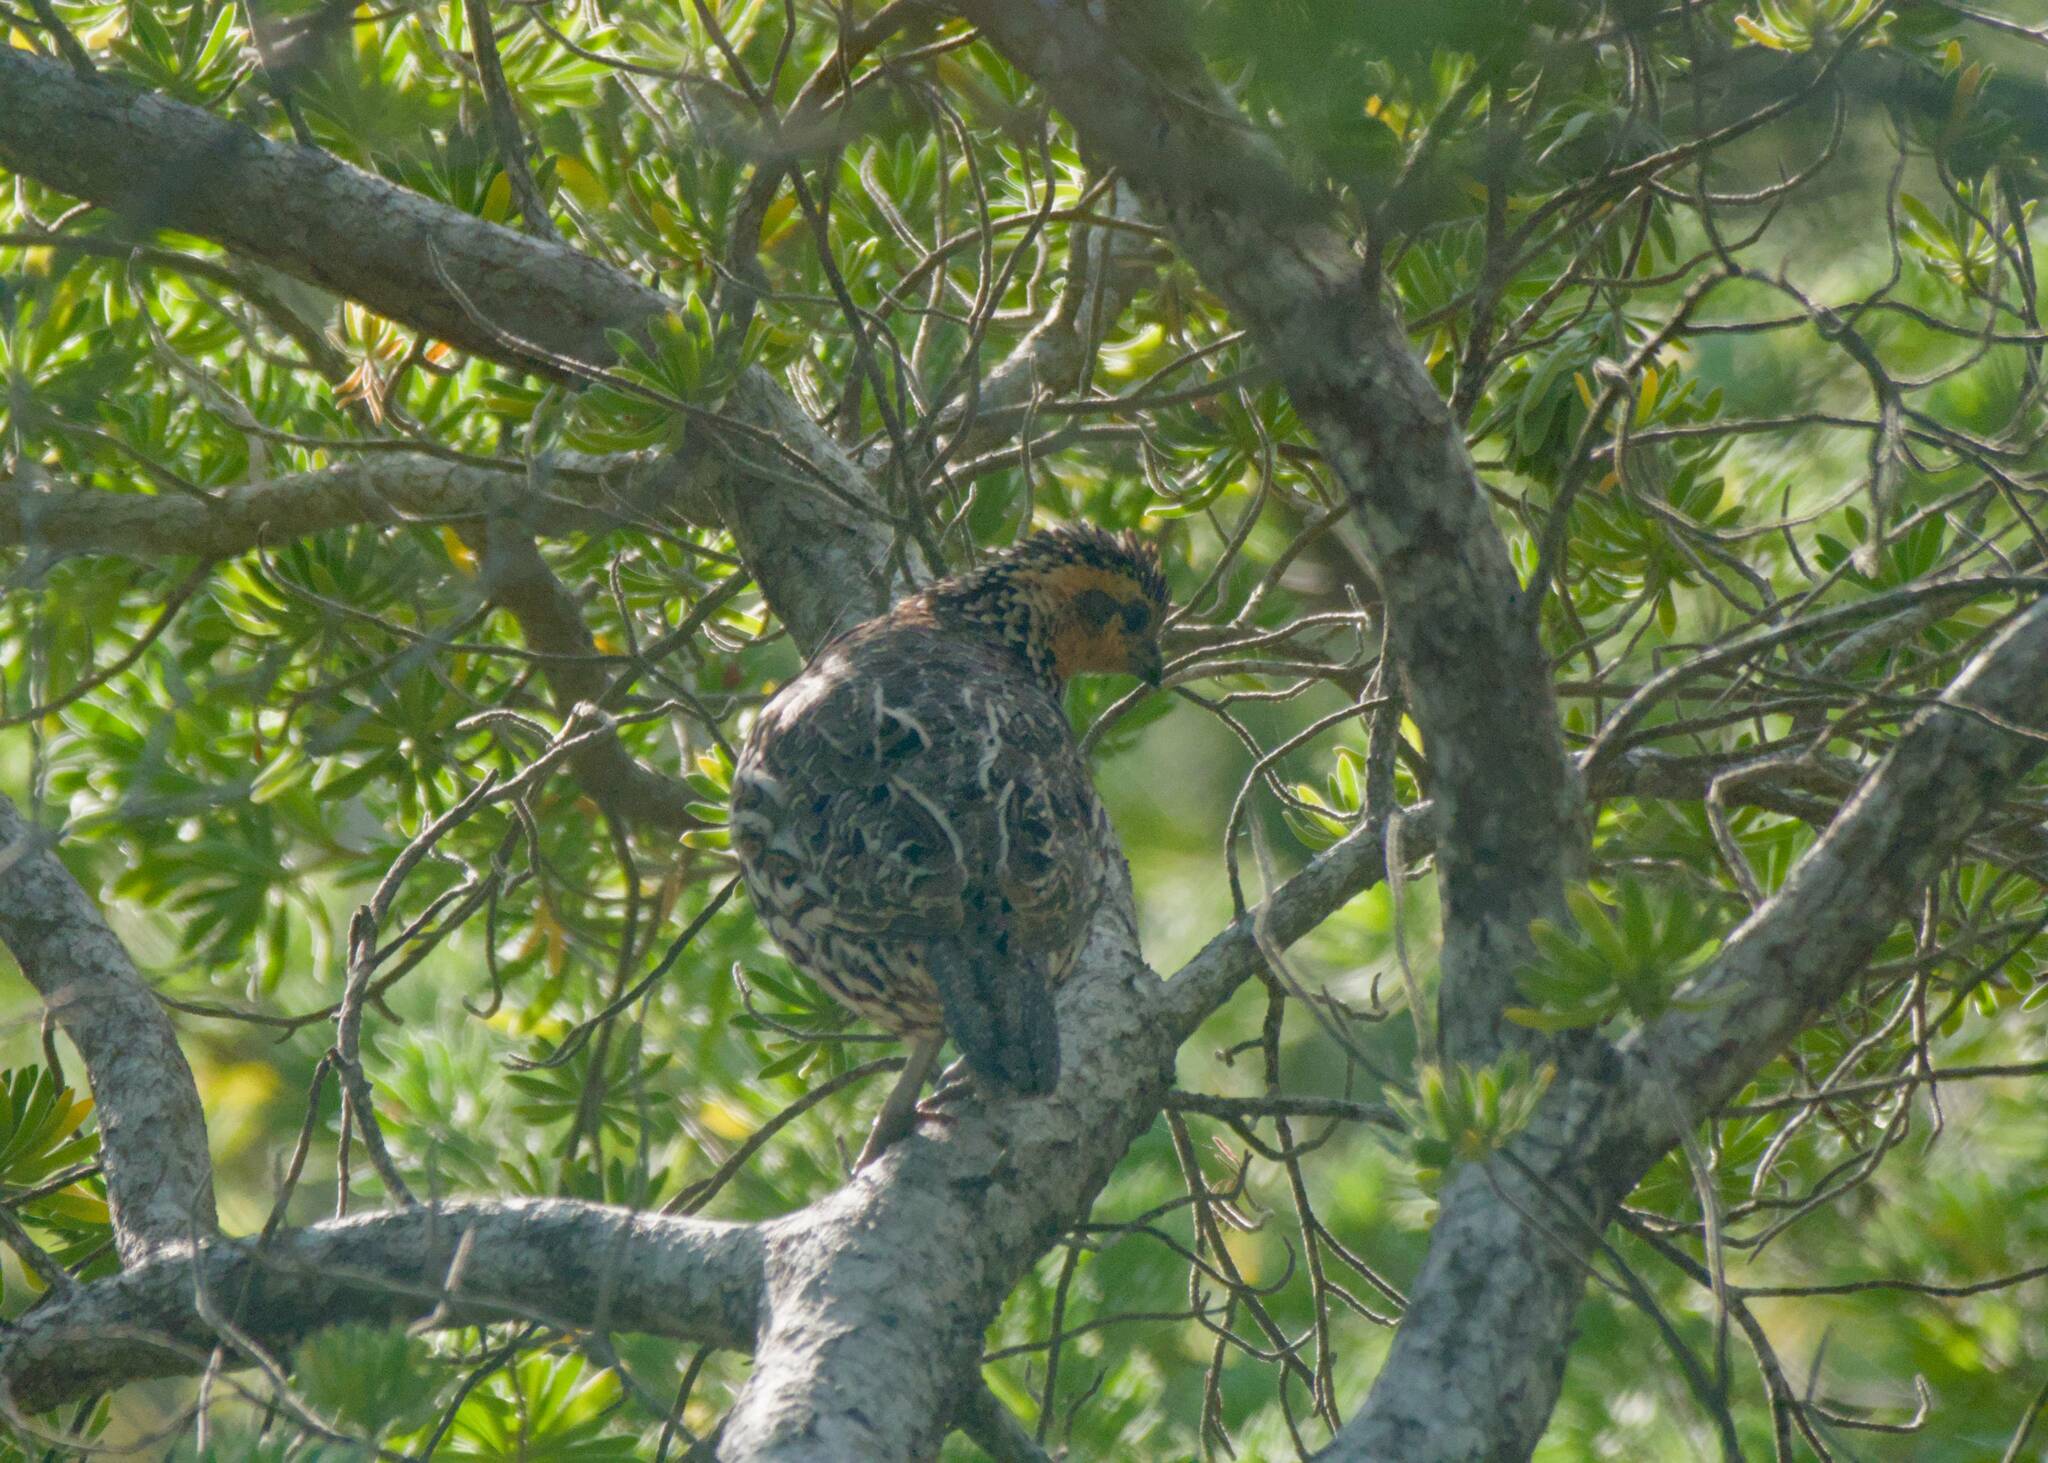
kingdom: Animalia
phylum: Chordata
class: Aves
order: Galliformes
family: Odontophoridae
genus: Colinus
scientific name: Colinus nigrogularis
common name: Yucatan bobwhite
